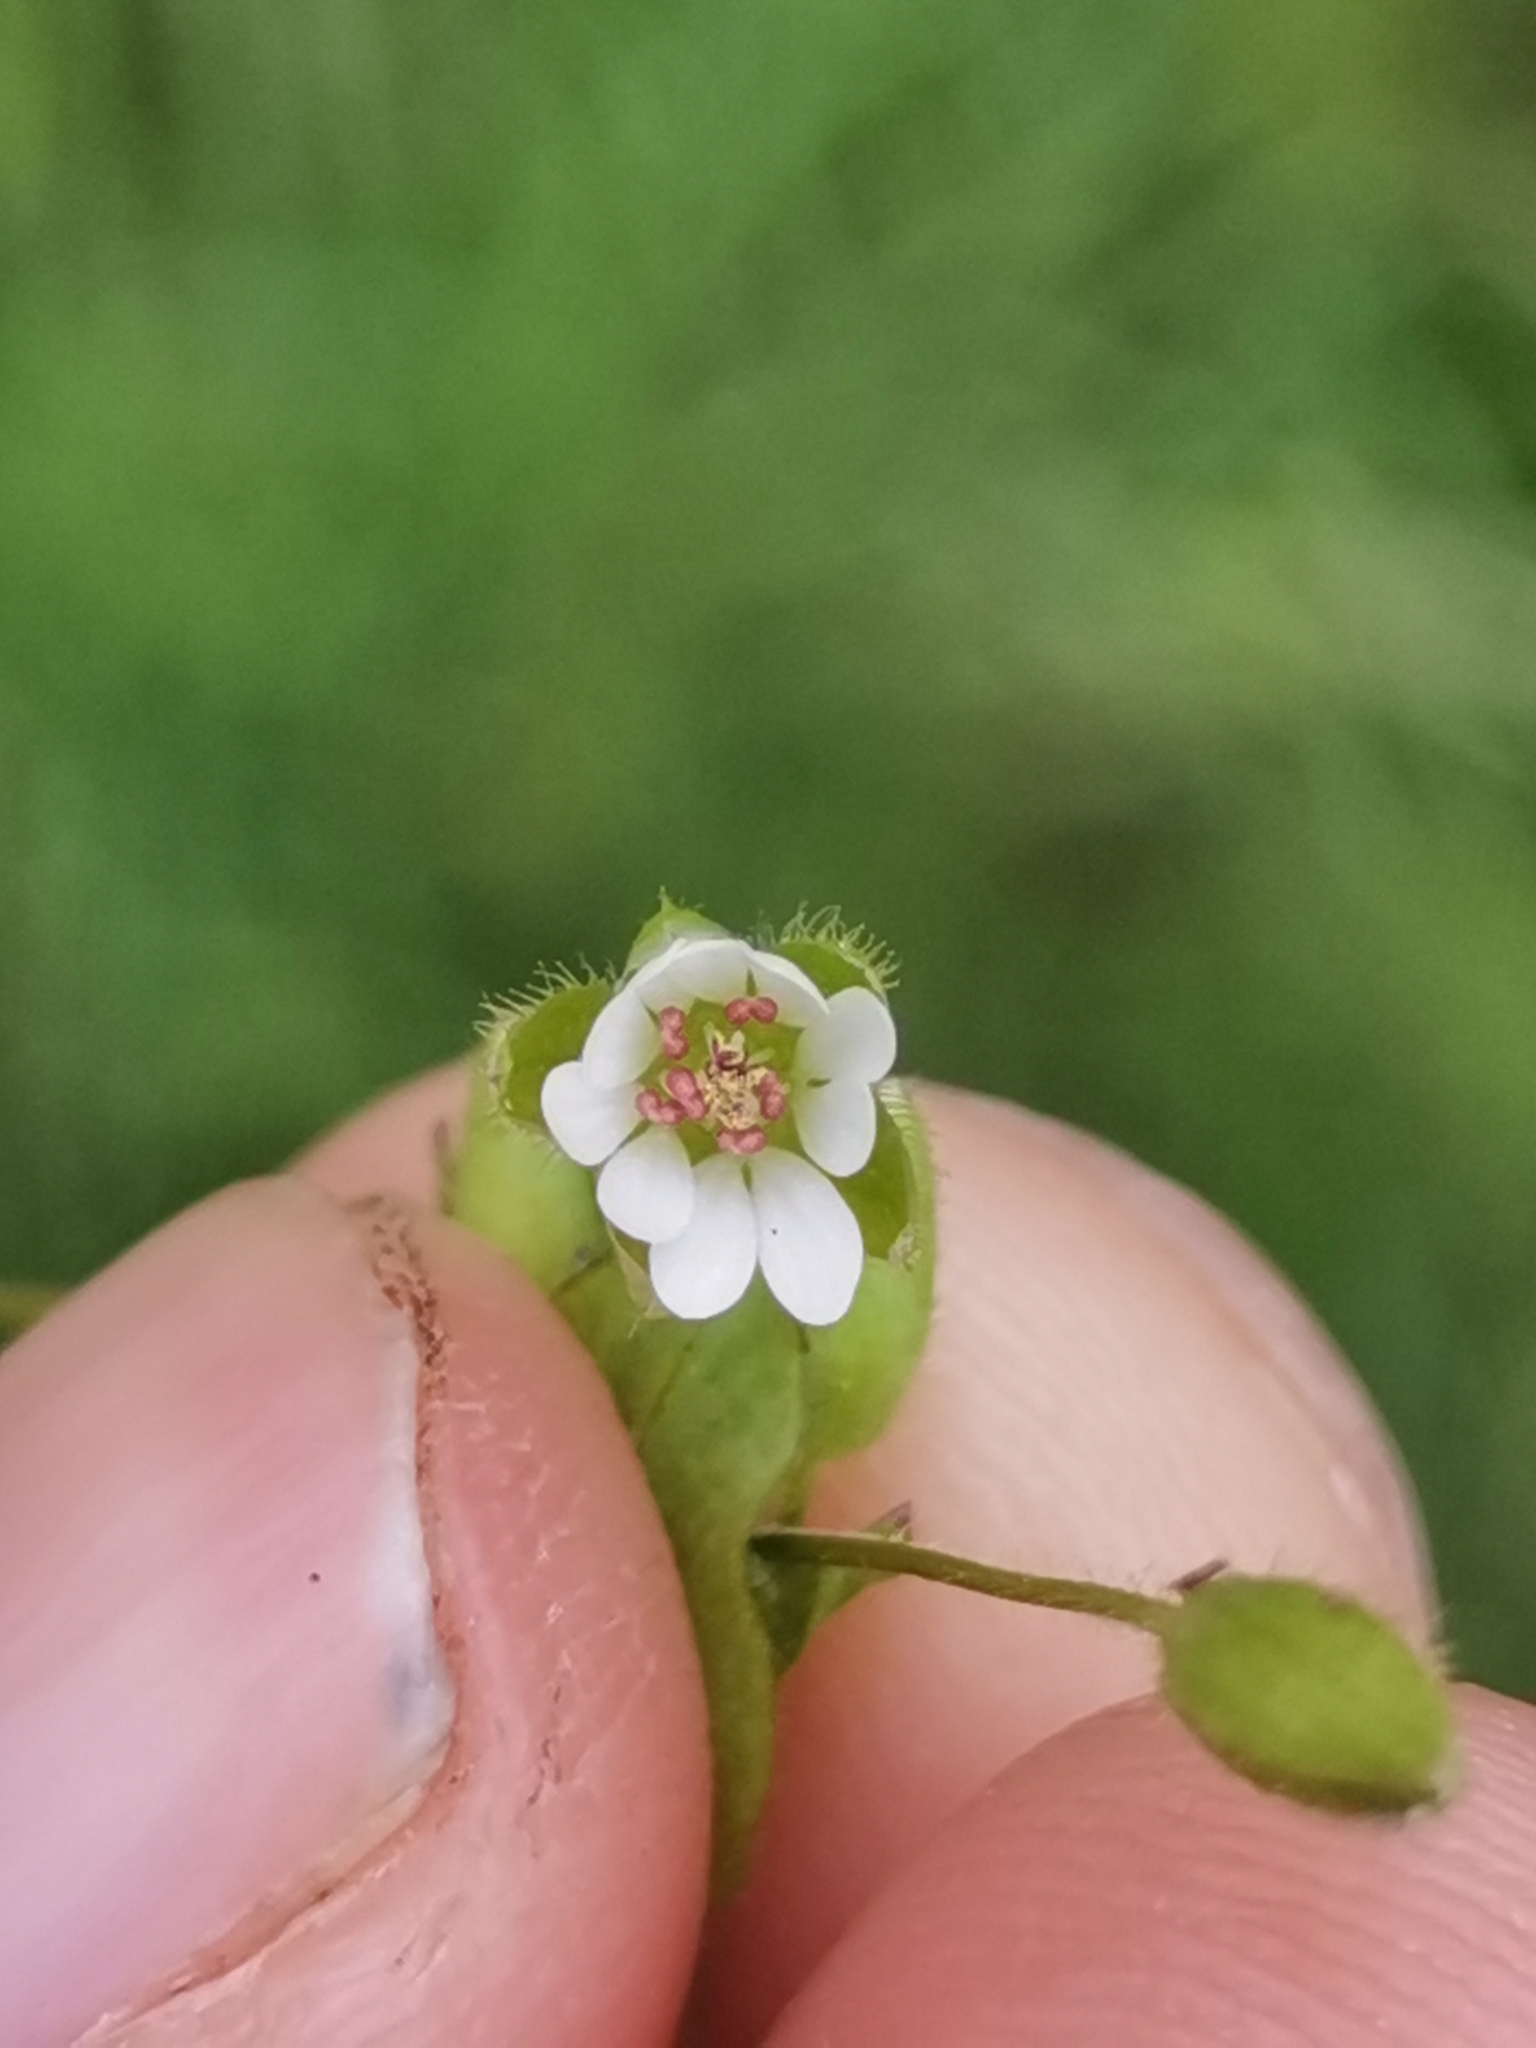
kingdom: Plantae
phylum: Tracheophyta
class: Magnoliopsida
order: Caryophyllales
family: Caryophyllaceae
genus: Stellaria
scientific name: Stellaria neglecta
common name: Greater chickweed
